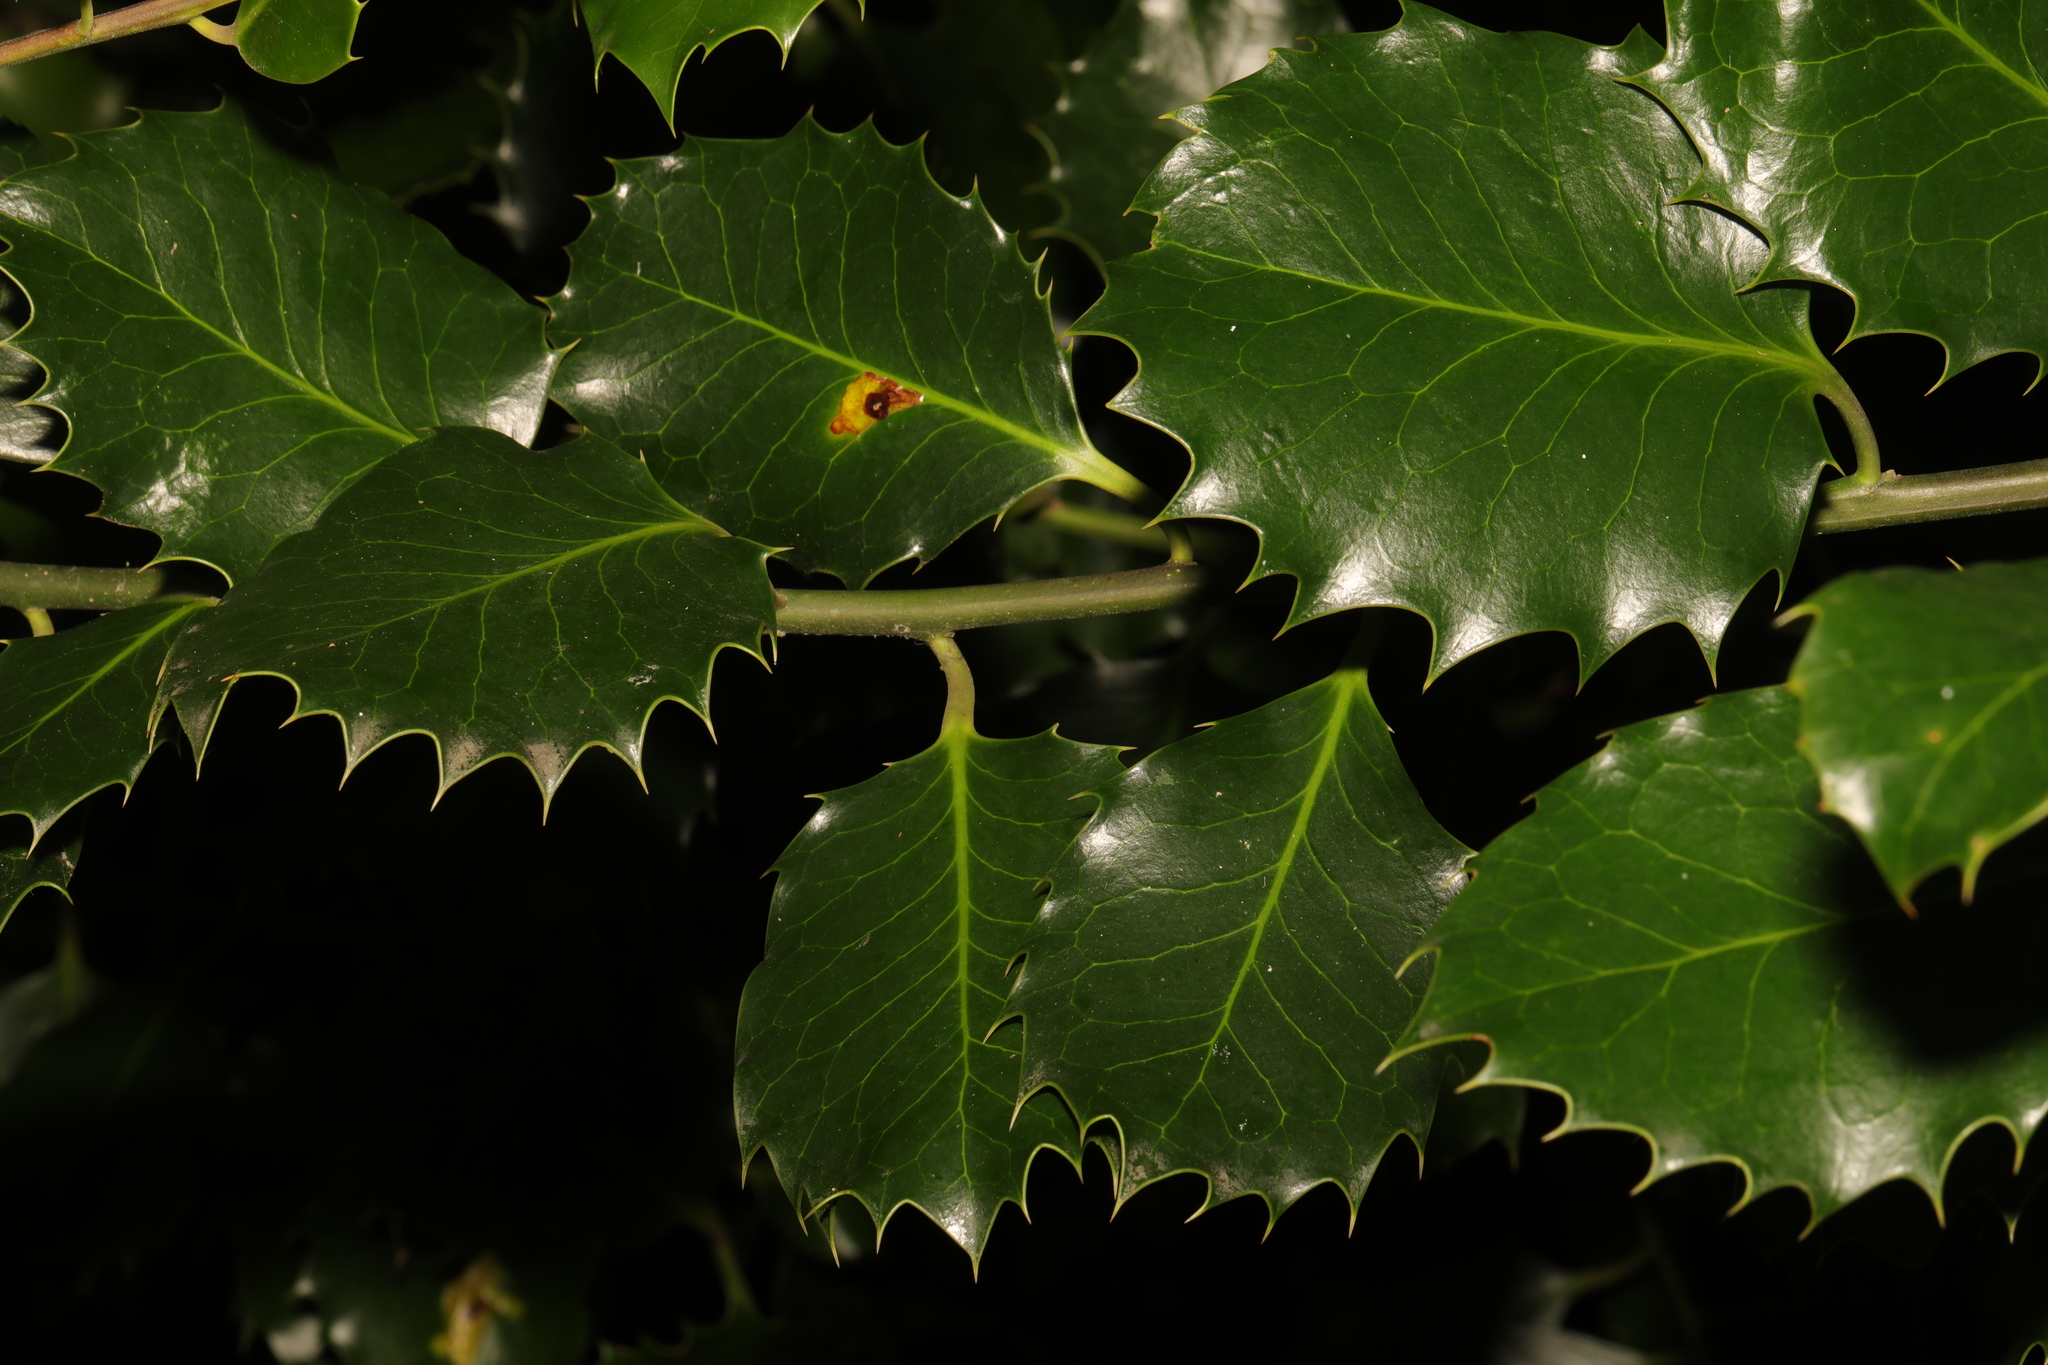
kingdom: Plantae
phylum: Tracheophyta
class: Magnoliopsida
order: Aquifoliales
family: Aquifoliaceae
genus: Ilex
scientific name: Ilex aquifolium
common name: English holly
